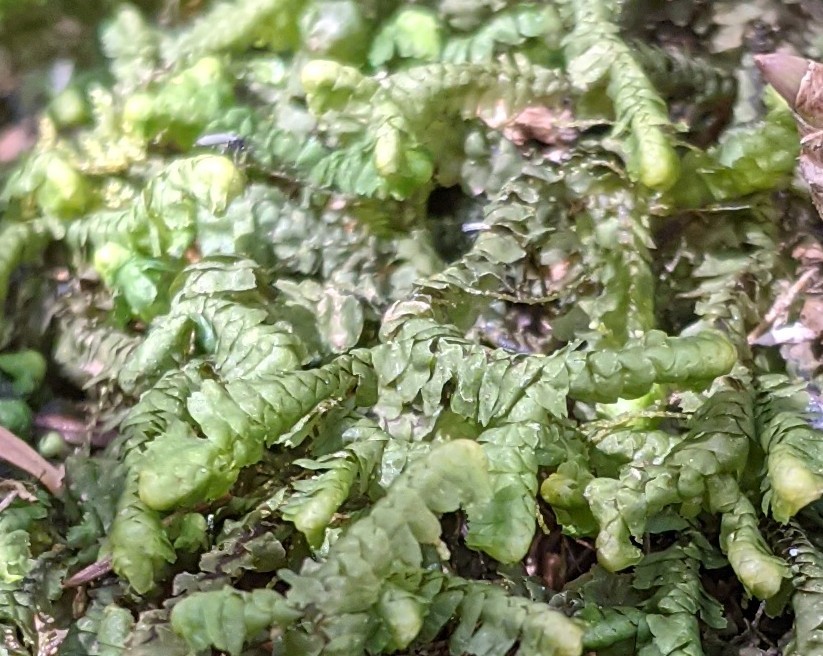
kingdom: Plantae
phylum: Marchantiophyta
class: Jungermanniopsida
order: Jungermanniales
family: Lepidoziaceae
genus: Bazzania
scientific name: Bazzania trilobata
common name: Three-lobed whipwort
